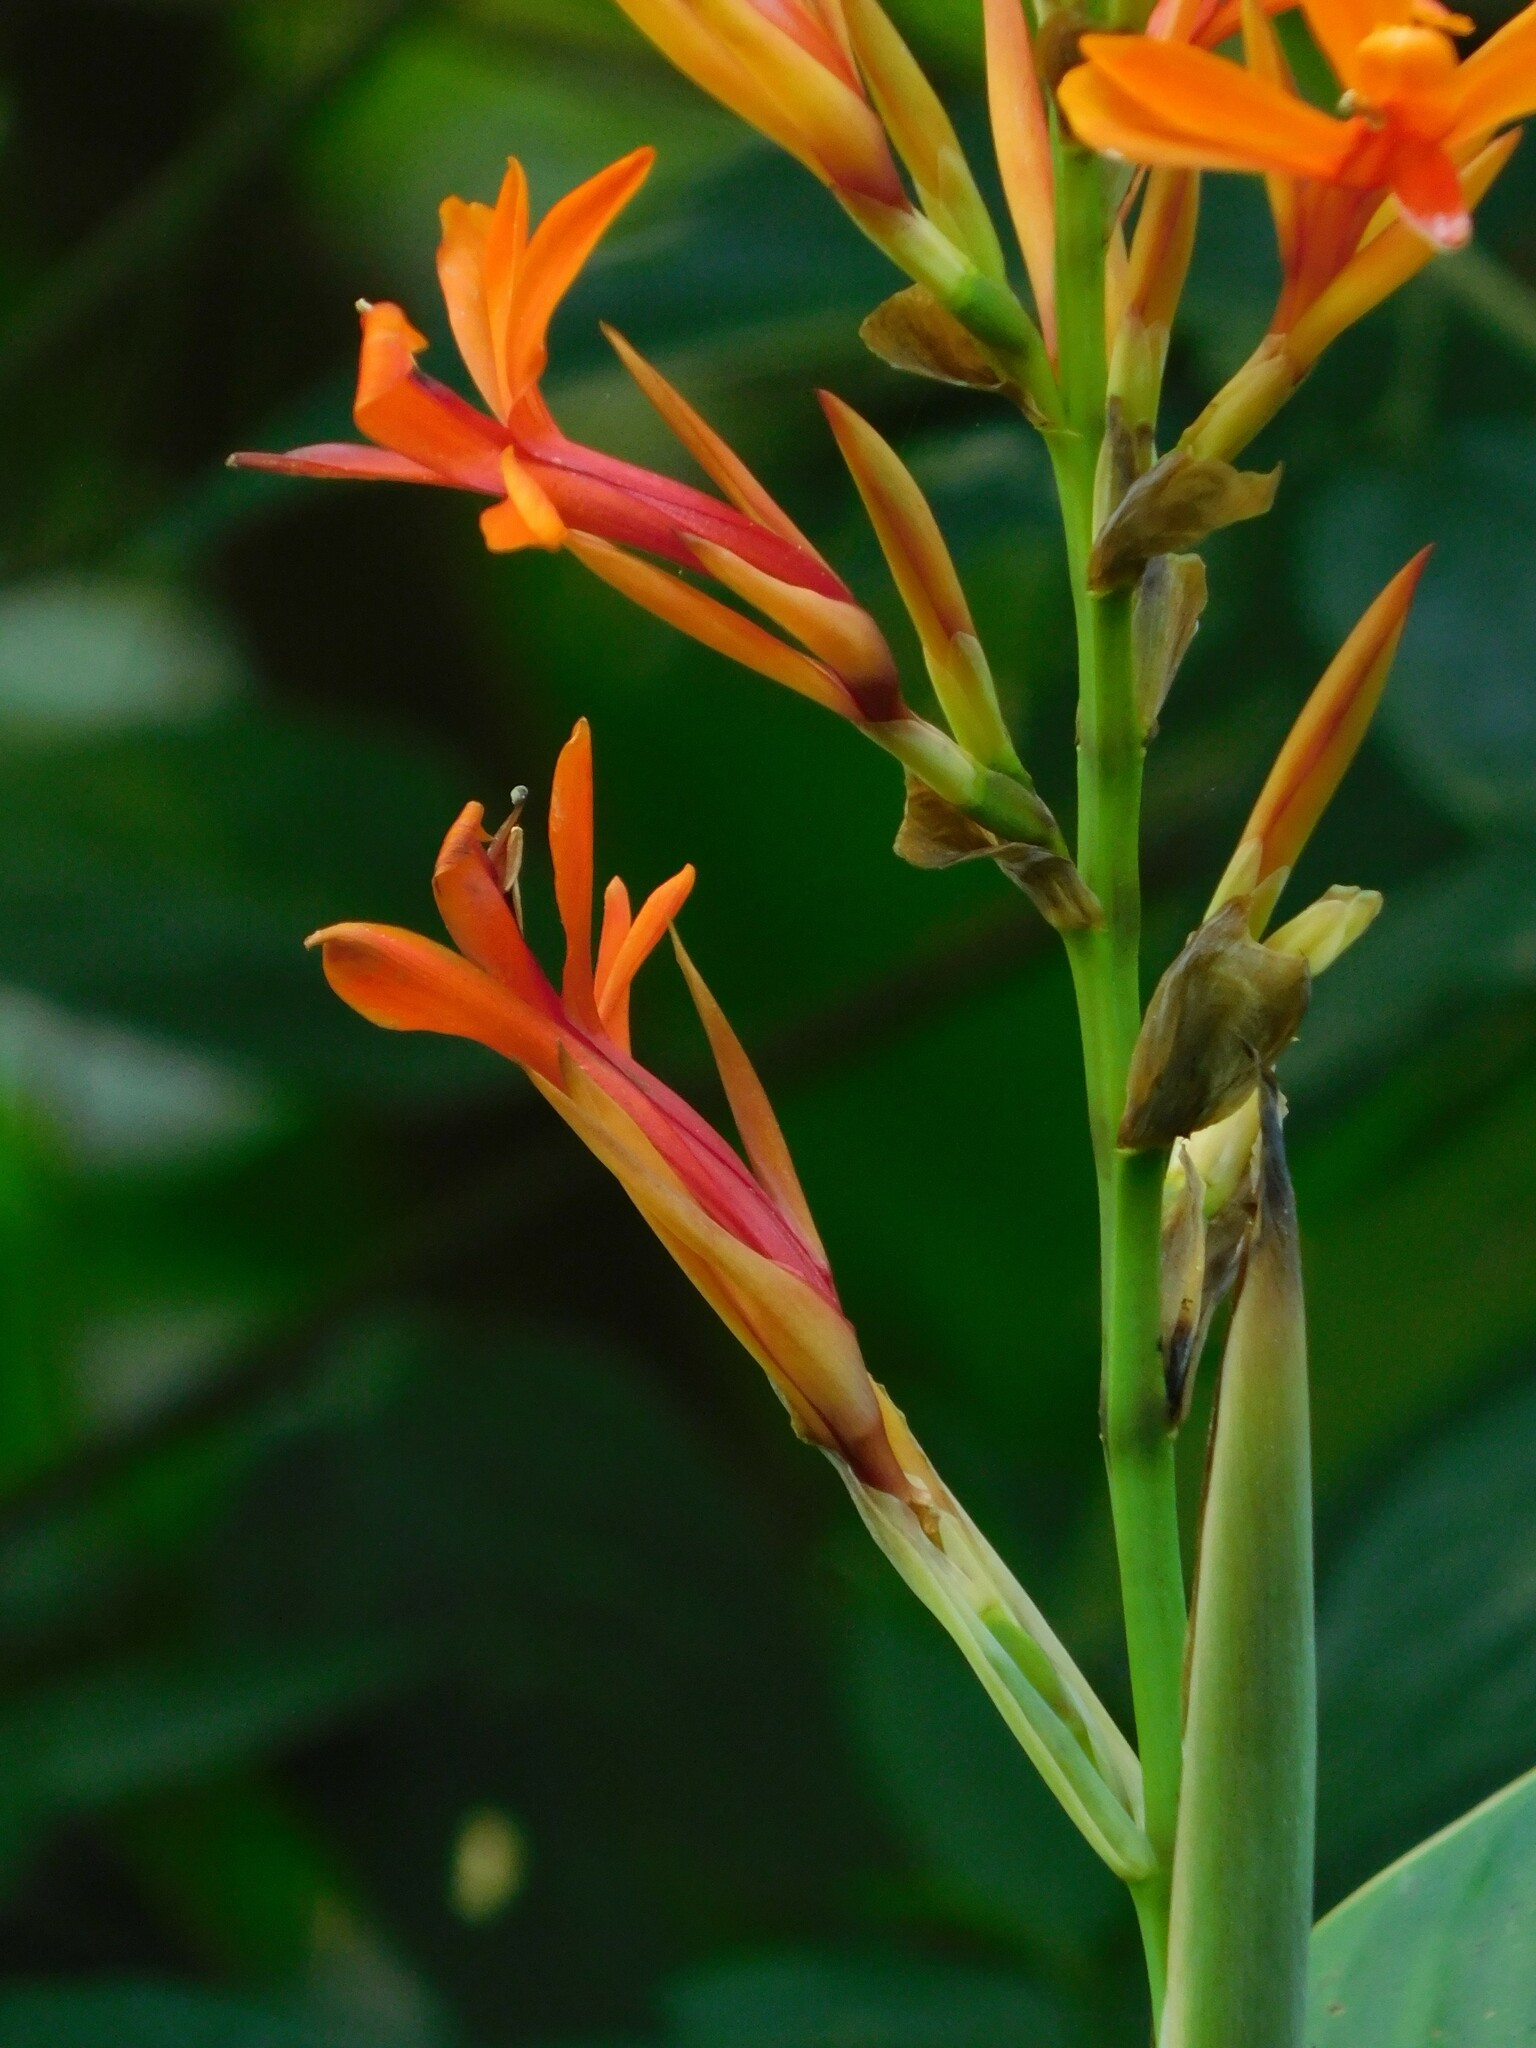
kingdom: Plantae
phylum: Tracheophyta
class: Liliopsida
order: Zingiberales
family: Cannaceae
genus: Canna
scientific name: Canna tuerckheimii
